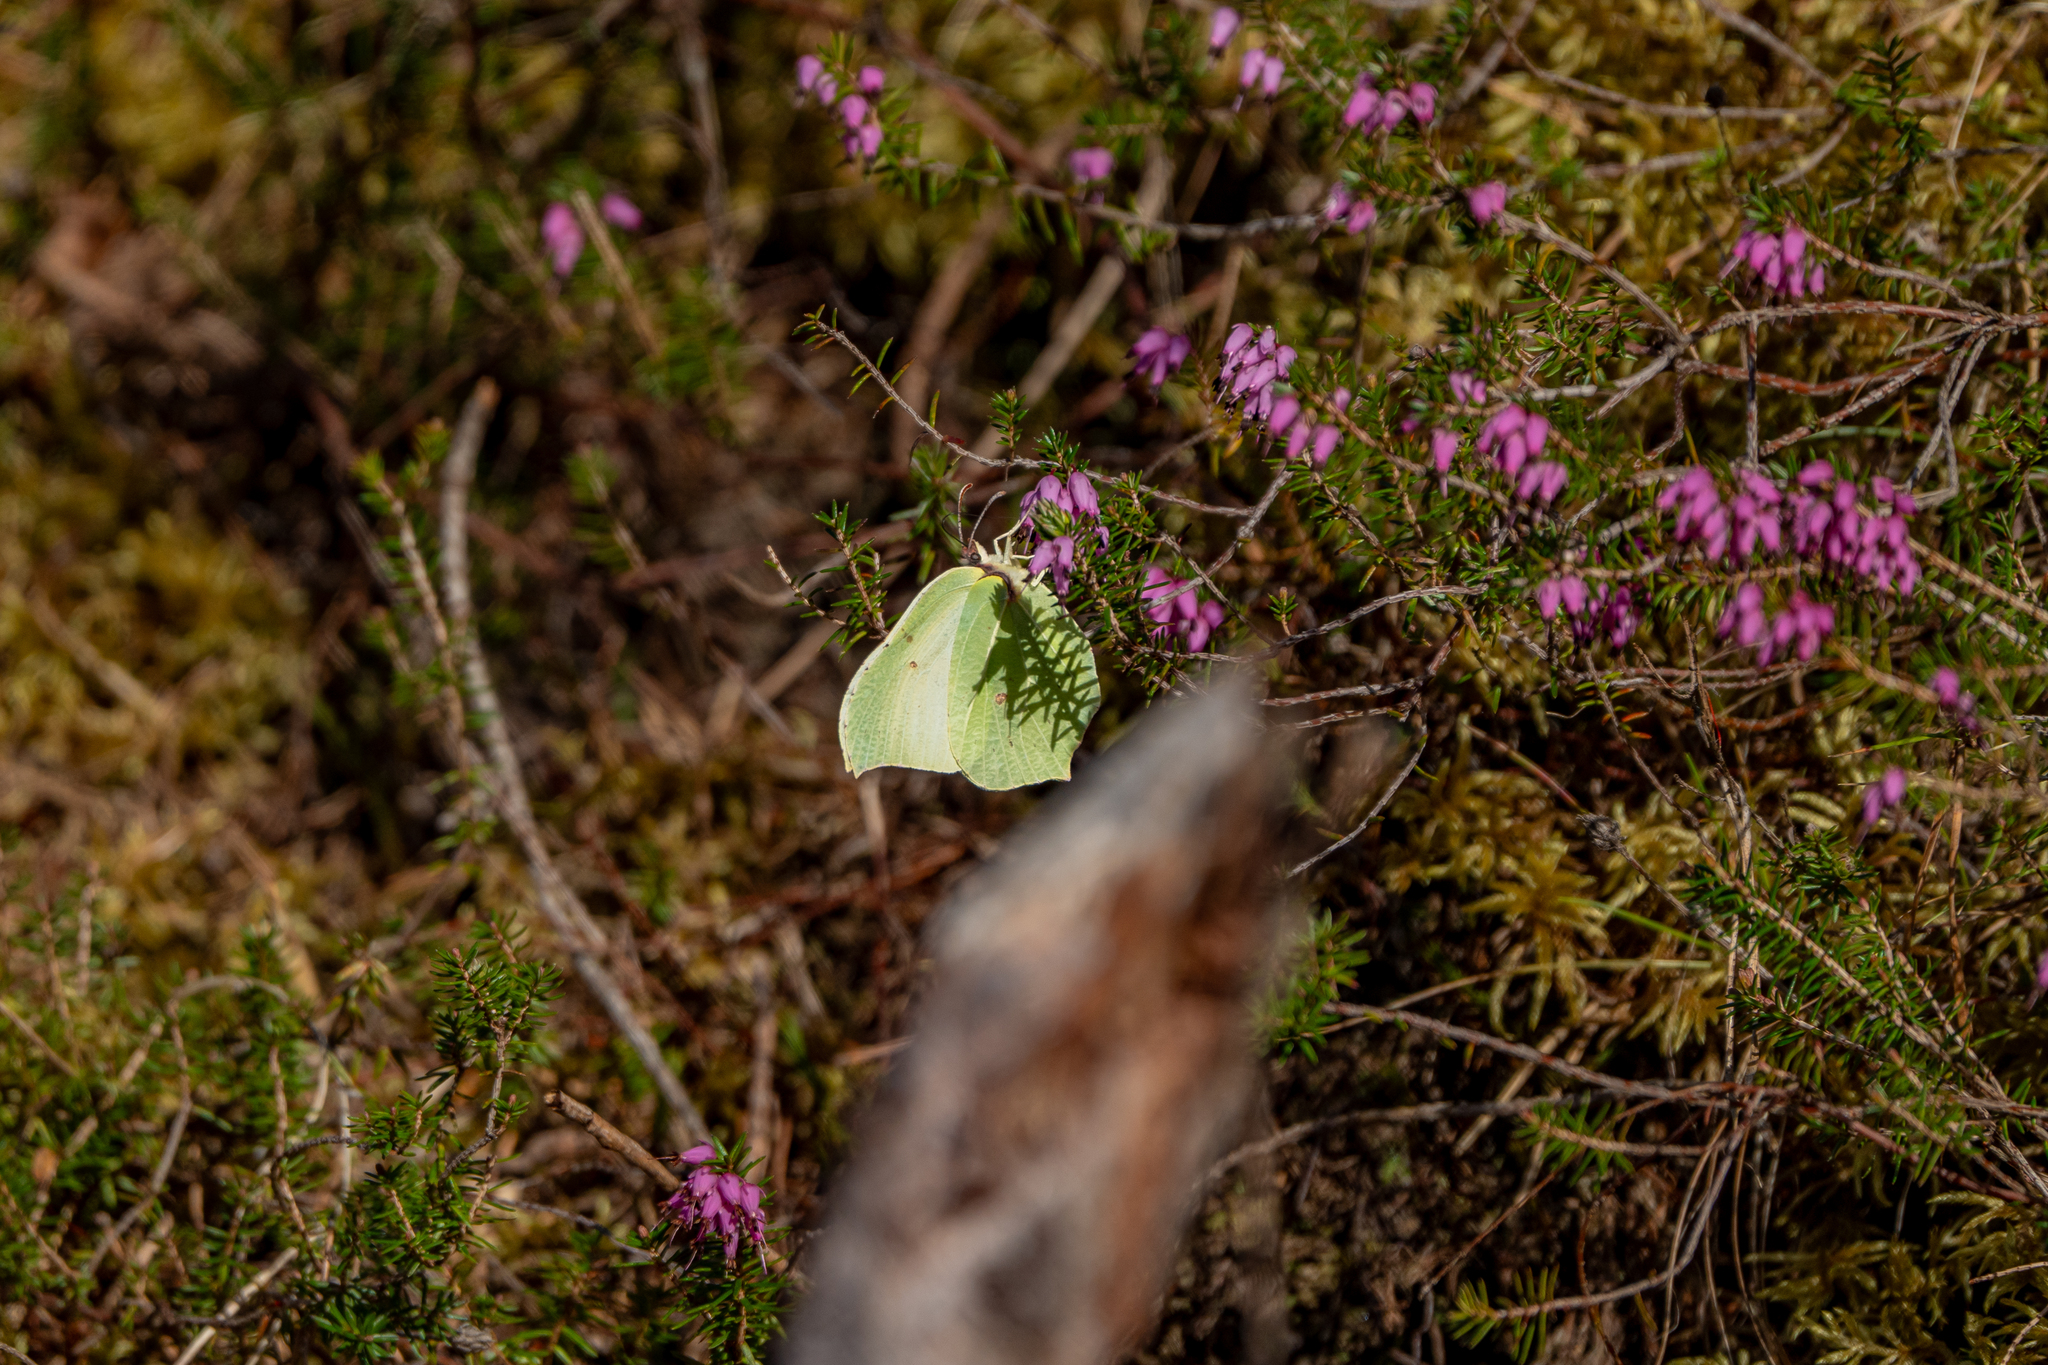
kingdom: Animalia
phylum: Arthropoda
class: Insecta
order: Lepidoptera
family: Pieridae
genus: Gonepteryx
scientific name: Gonepteryx rhamni
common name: Brimstone
